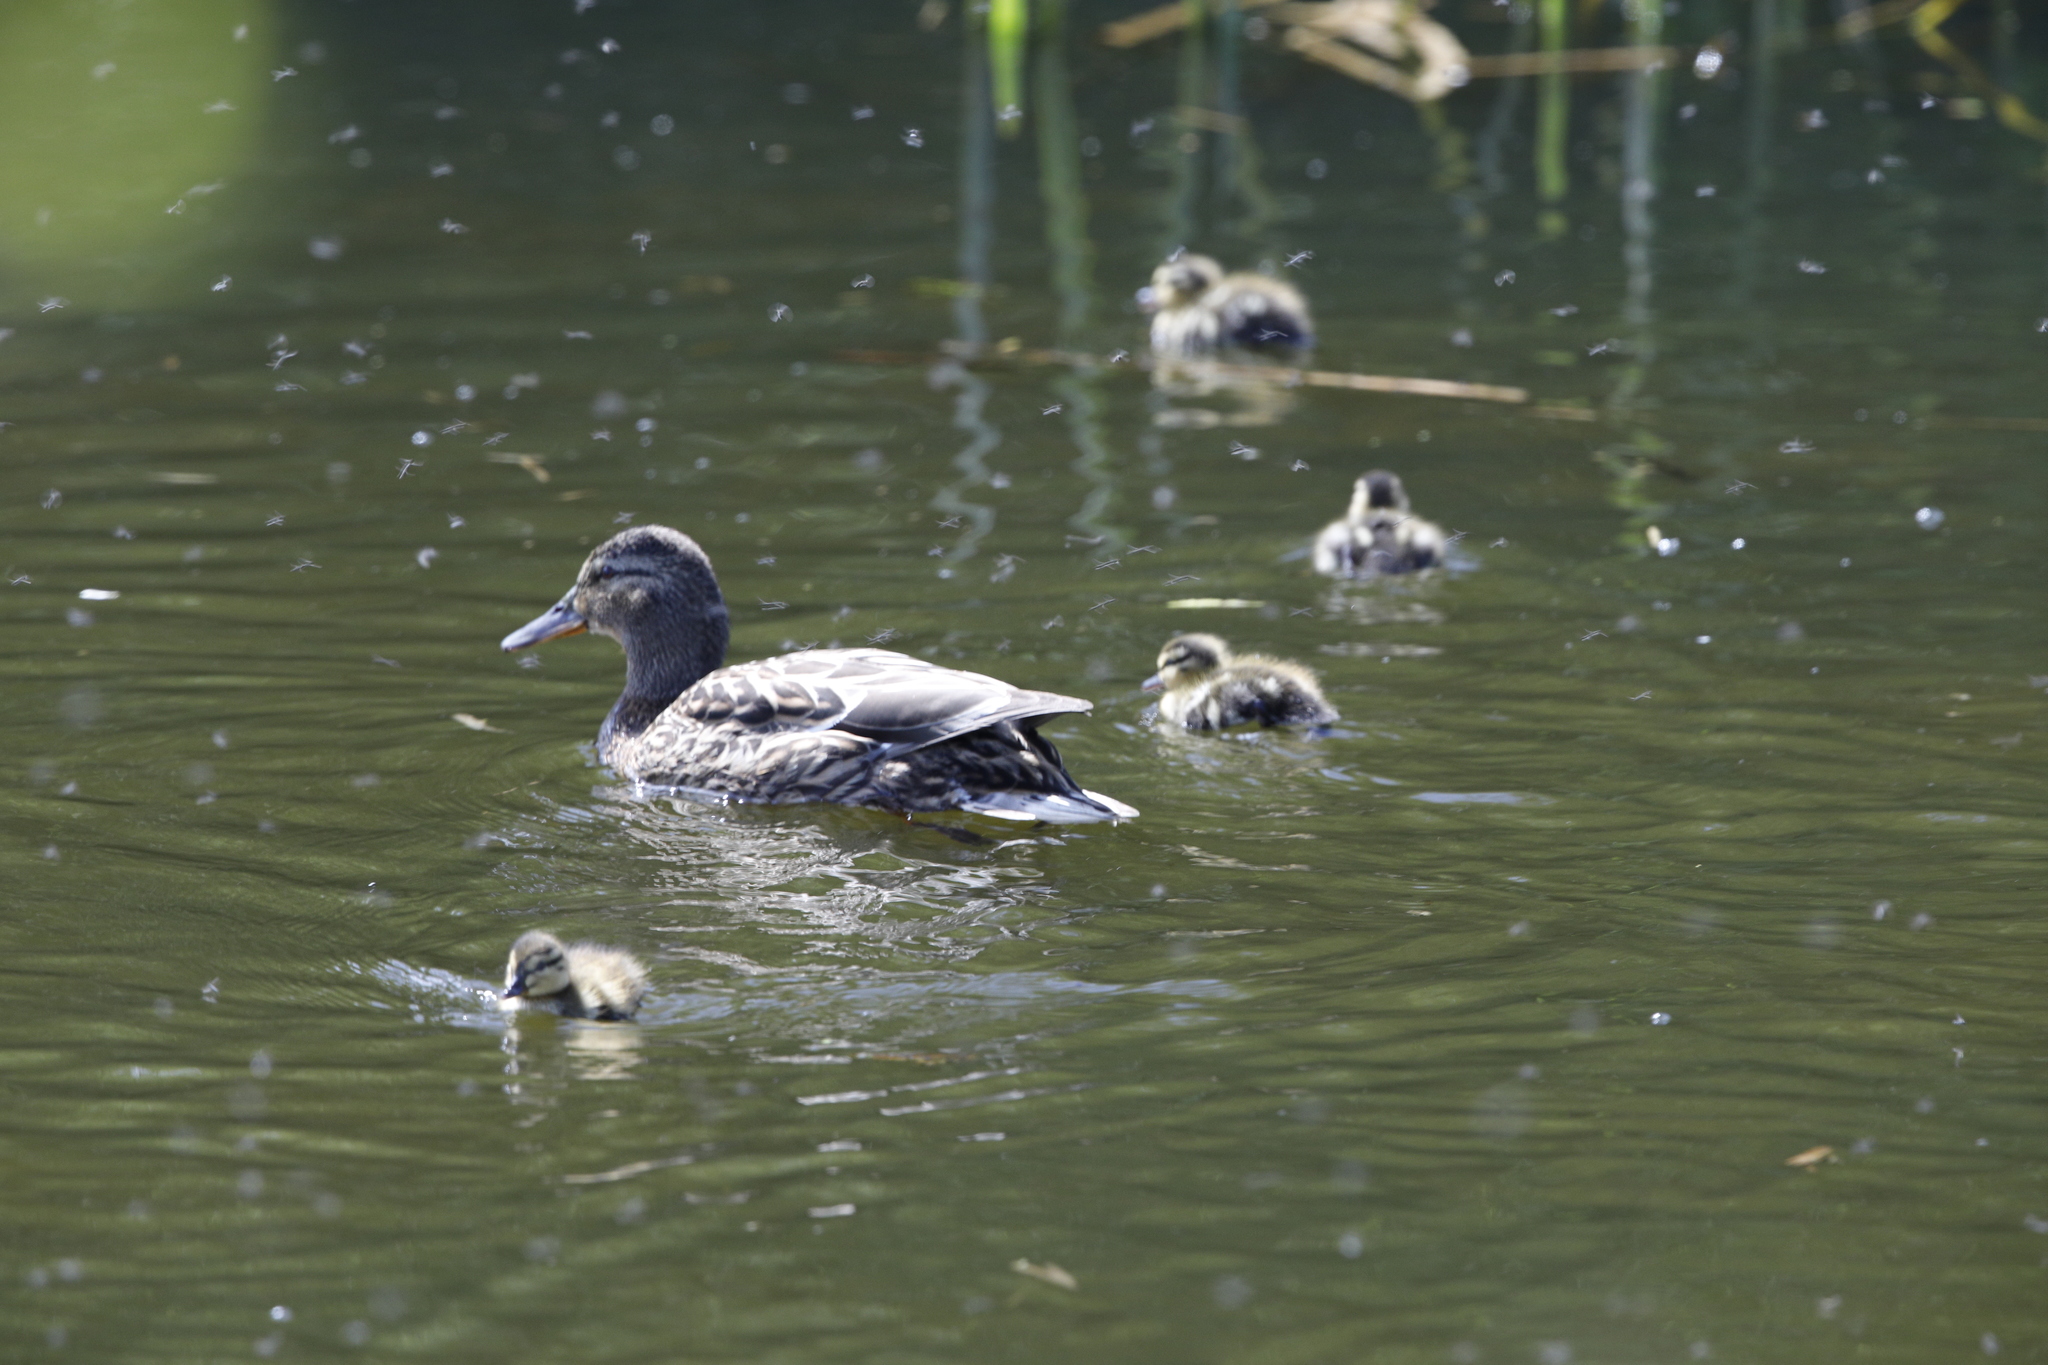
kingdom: Animalia
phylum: Chordata
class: Aves
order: Anseriformes
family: Anatidae
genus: Anas
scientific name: Anas platyrhynchos
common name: Mallard
